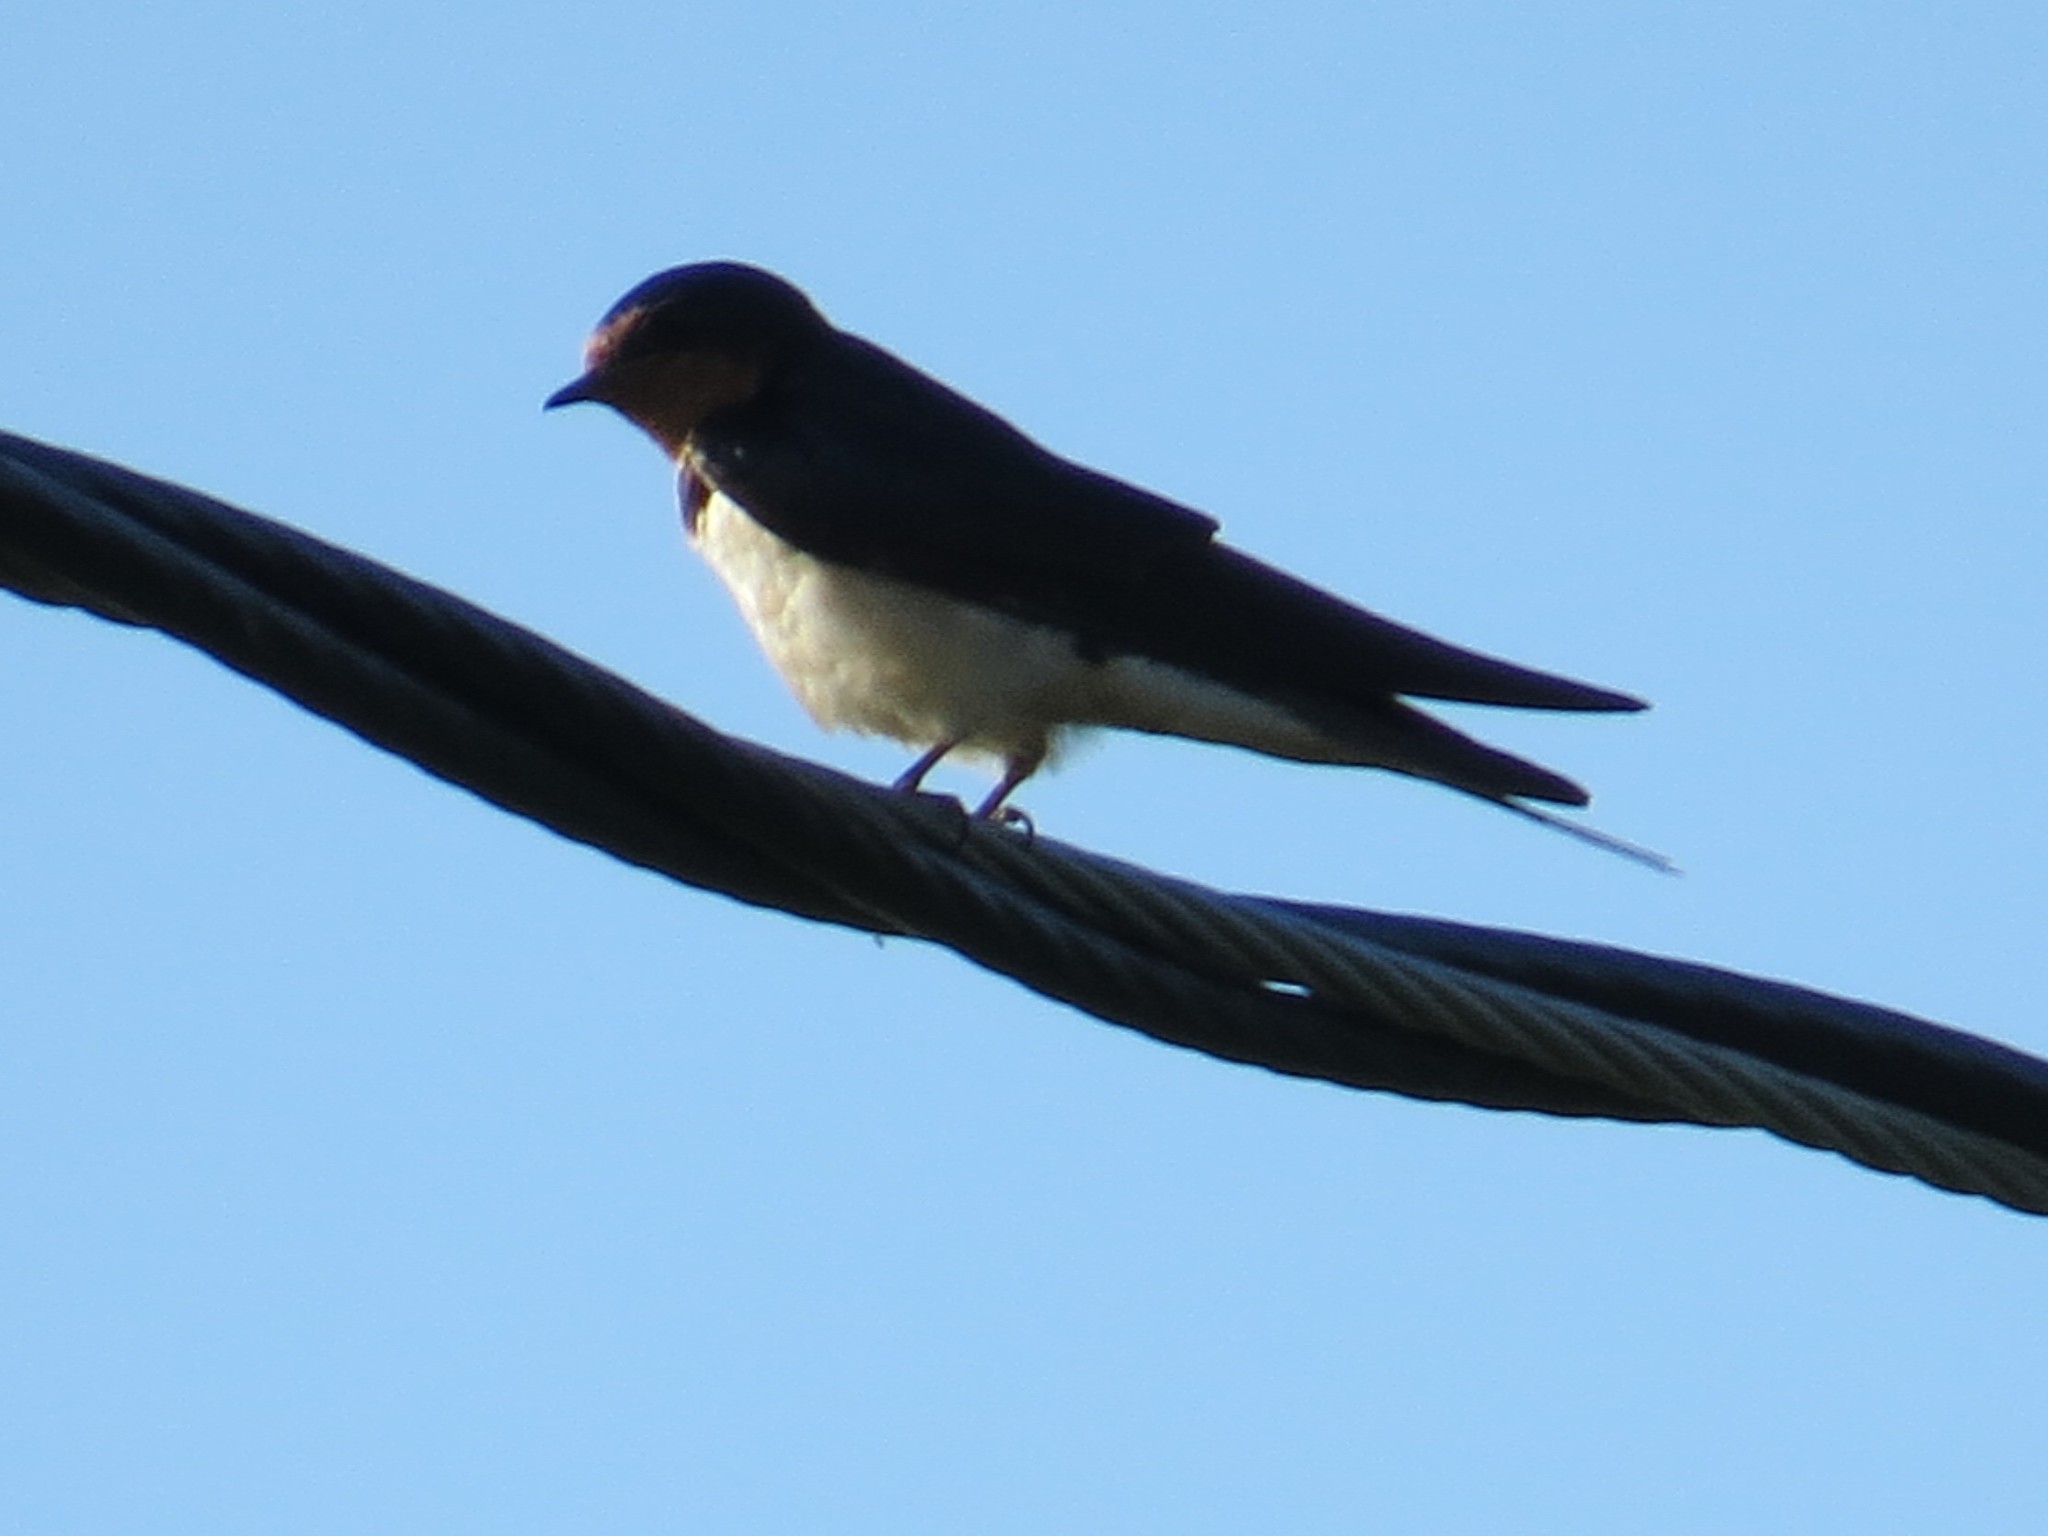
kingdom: Animalia
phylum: Chordata
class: Aves
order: Passeriformes
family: Hirundinidae
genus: Hirundo
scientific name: Hirundo rustica
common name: Barn swallow
